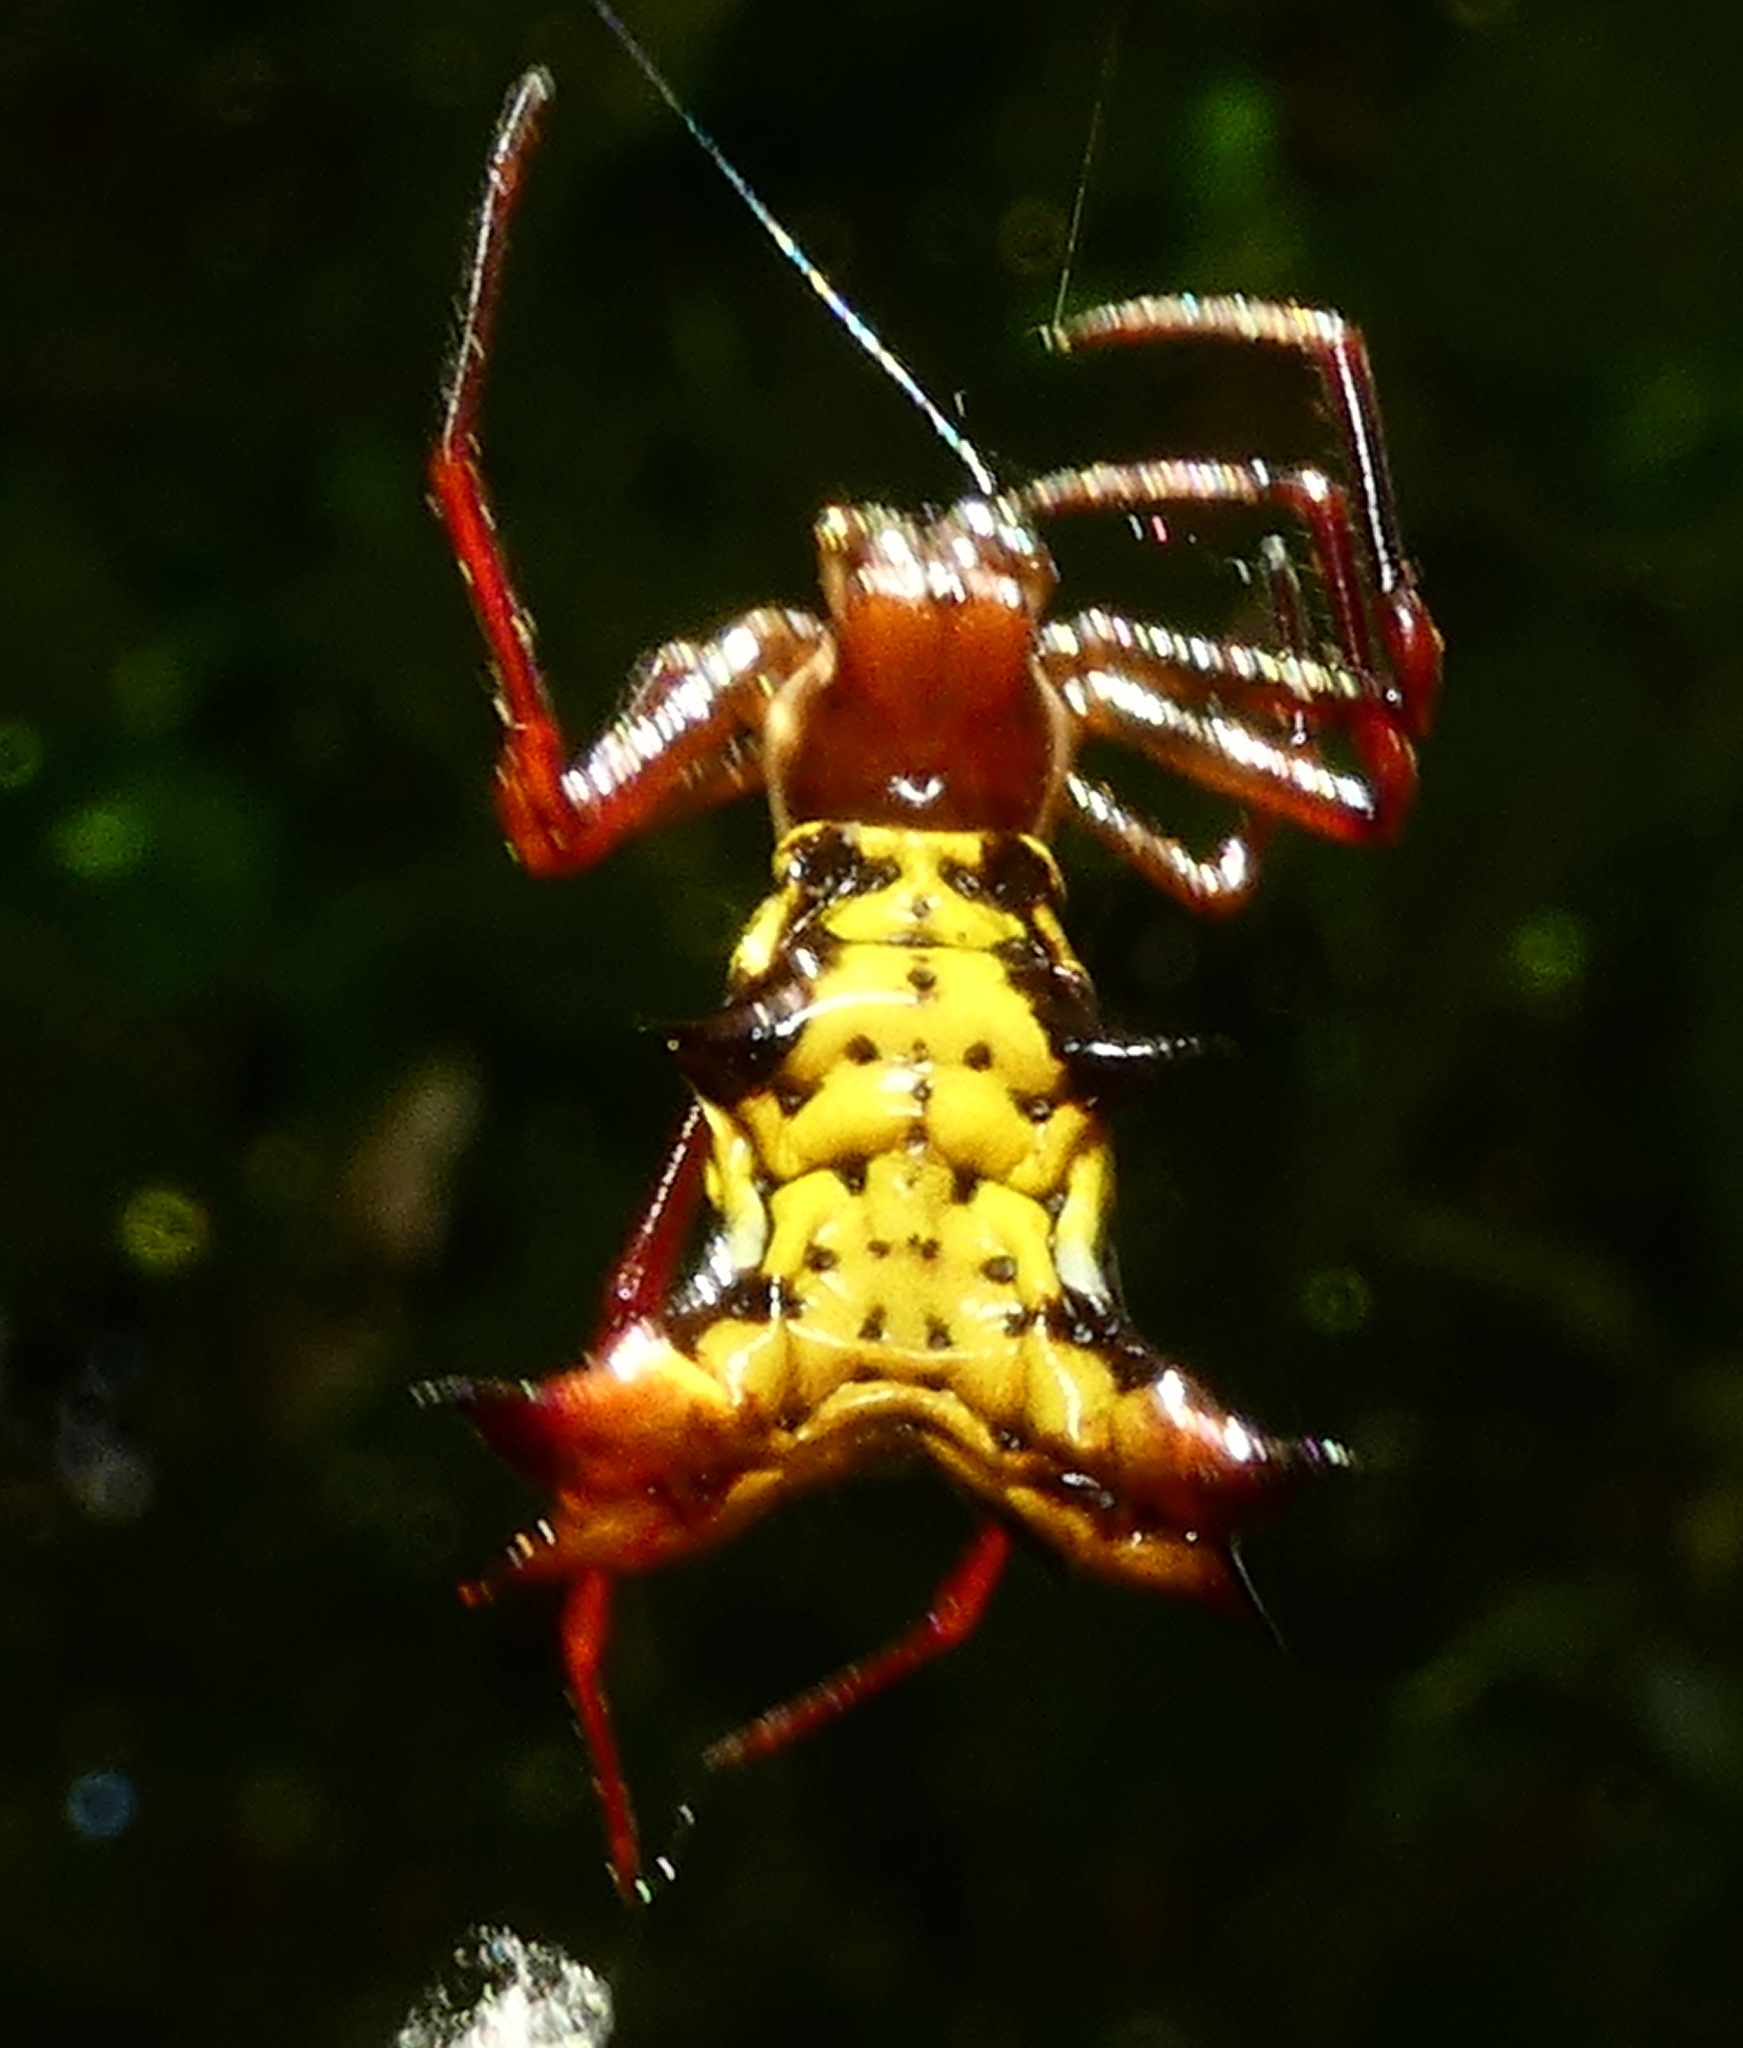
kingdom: Animalia
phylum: Arthropoda
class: Arachnida
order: Araneae
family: Araneidae
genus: Micrathena
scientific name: Micrathena fissispina
